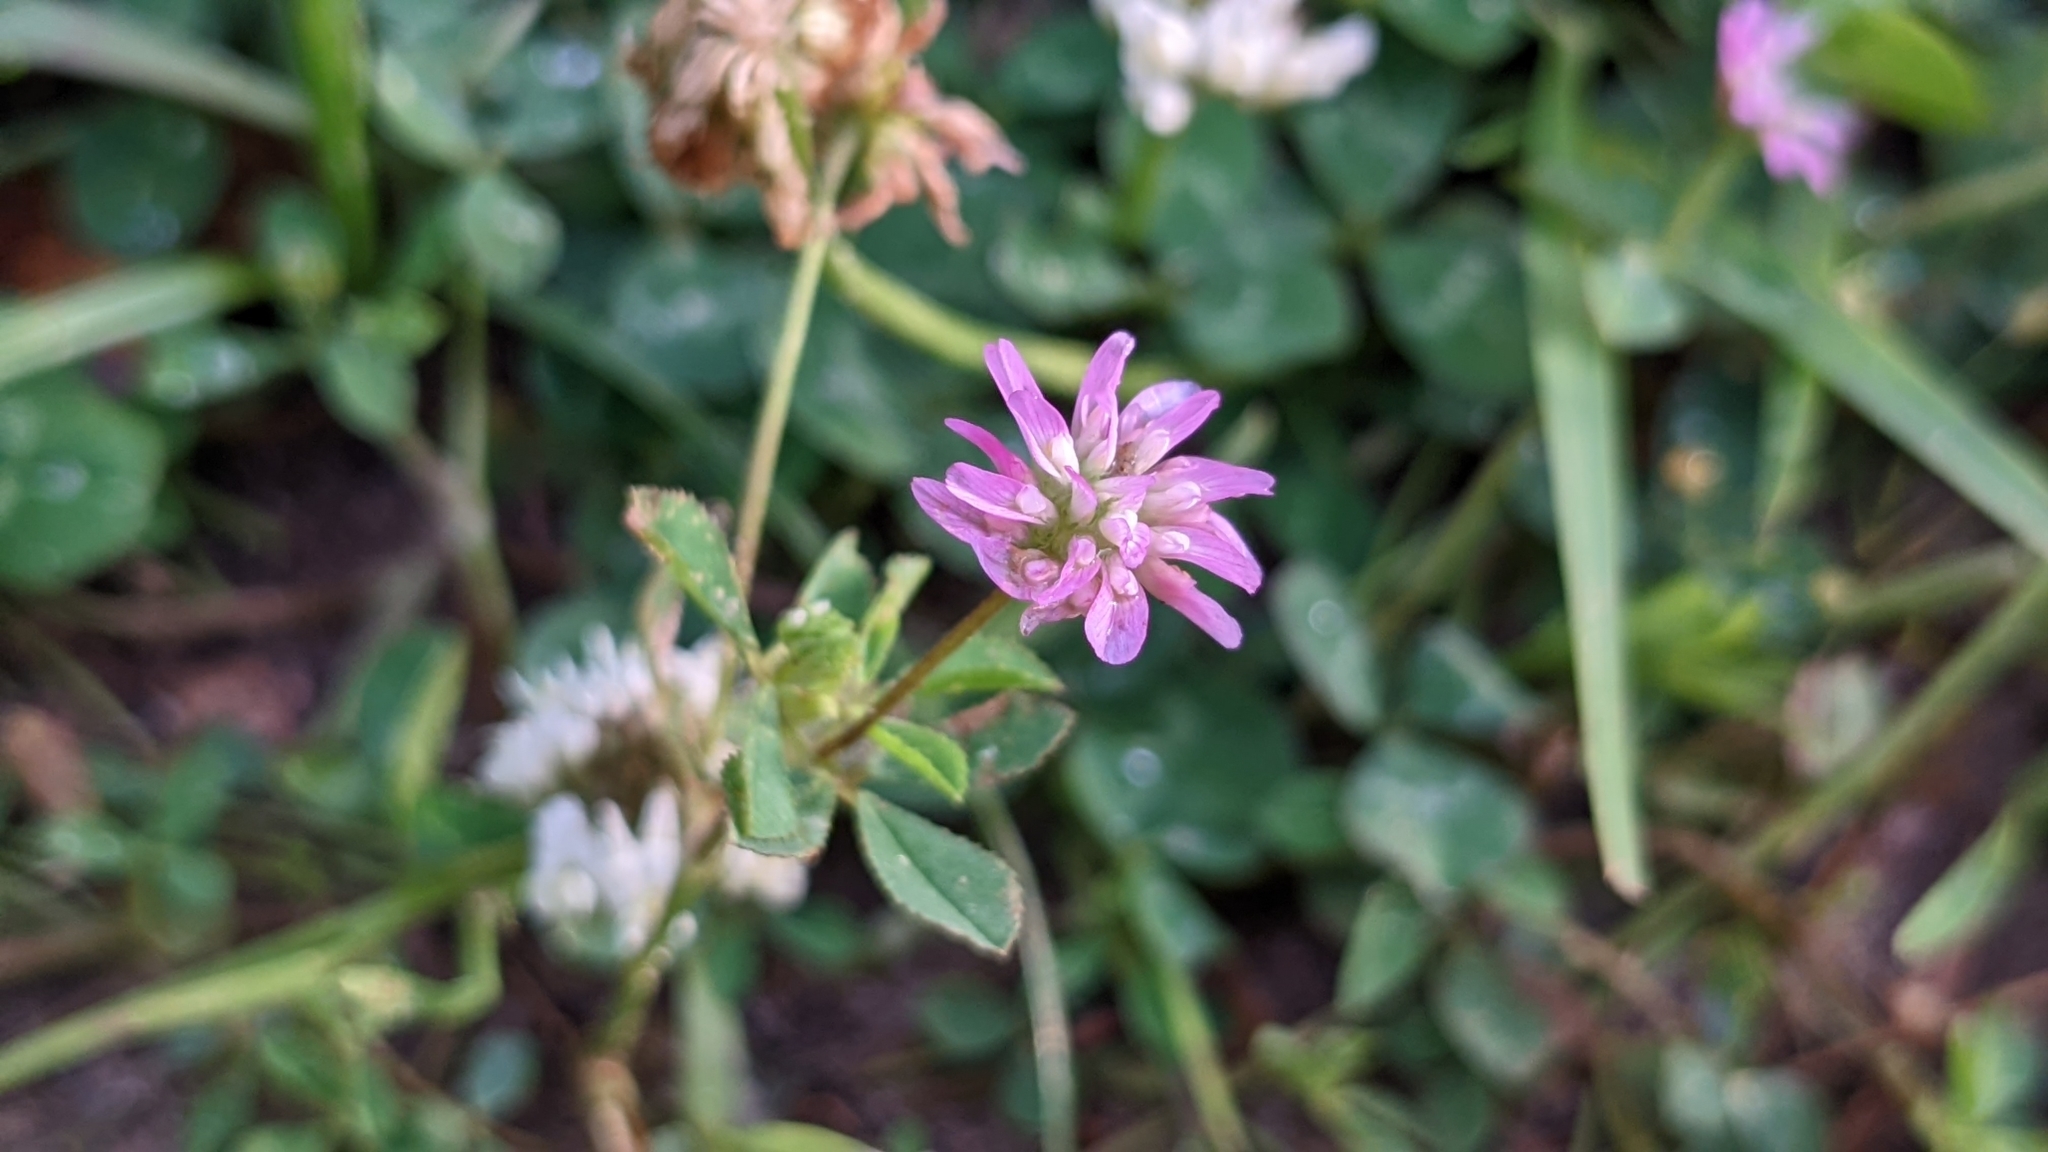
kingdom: Plantae
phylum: Tracheophyta
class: Magnoliopsida
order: Fabales
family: Fabaceae
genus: Trifolium
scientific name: Trifolium resupinatum
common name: Reversed clover
